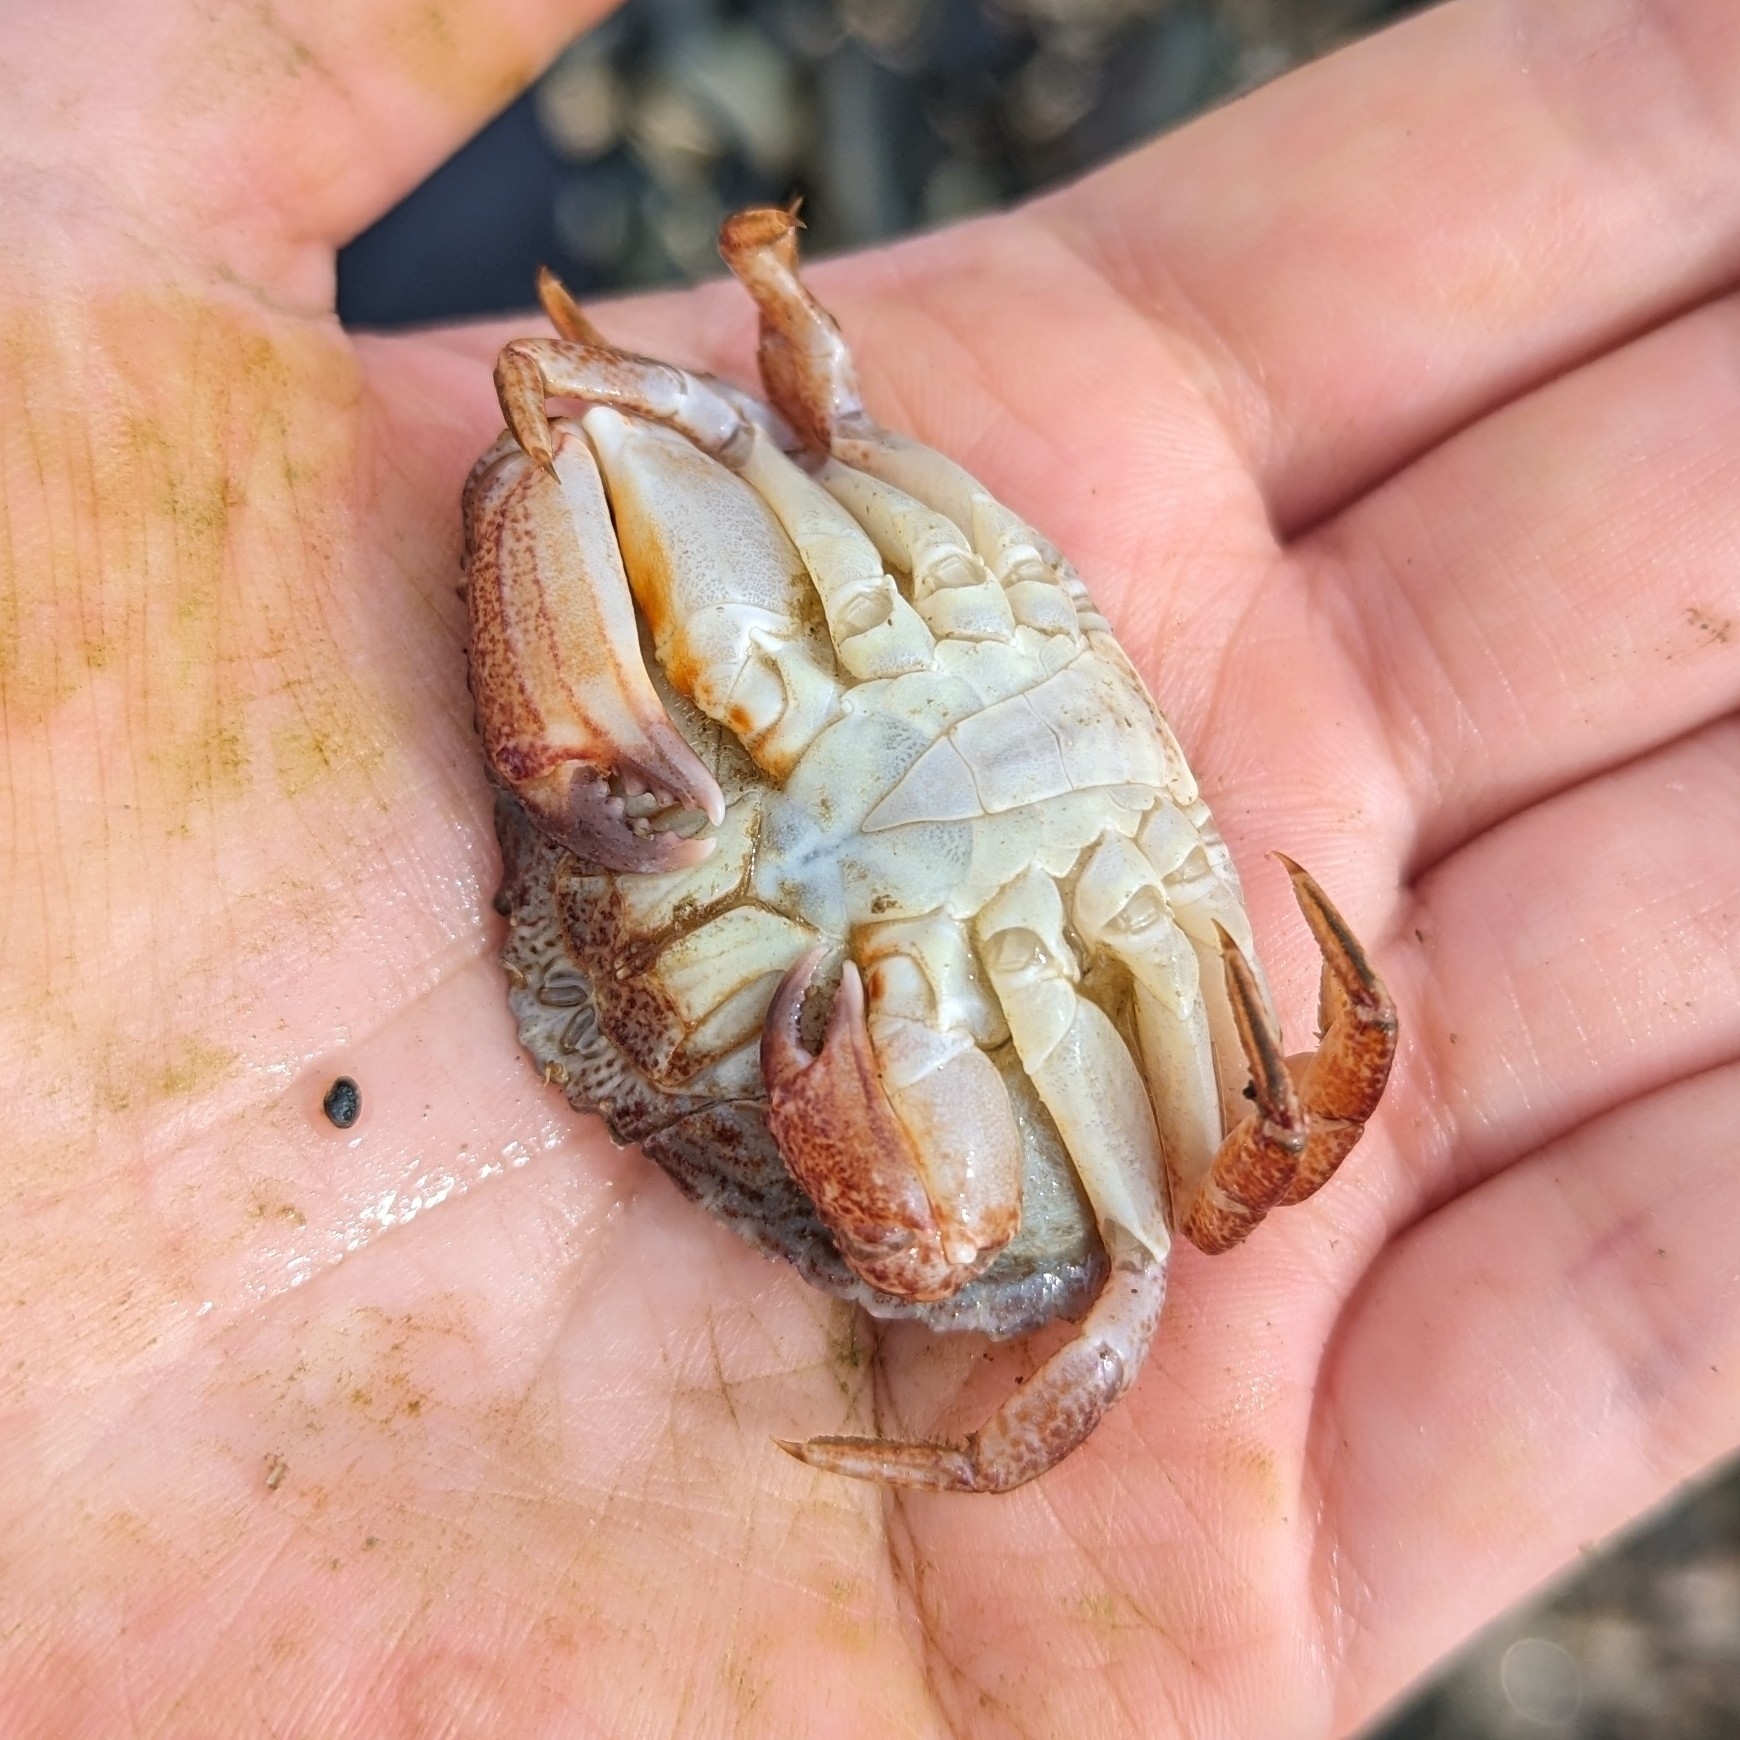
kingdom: Animalia
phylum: Arthropoda
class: Malacostraca
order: Decapoda
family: Cancridae
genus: Cancer
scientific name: Cancer productus
